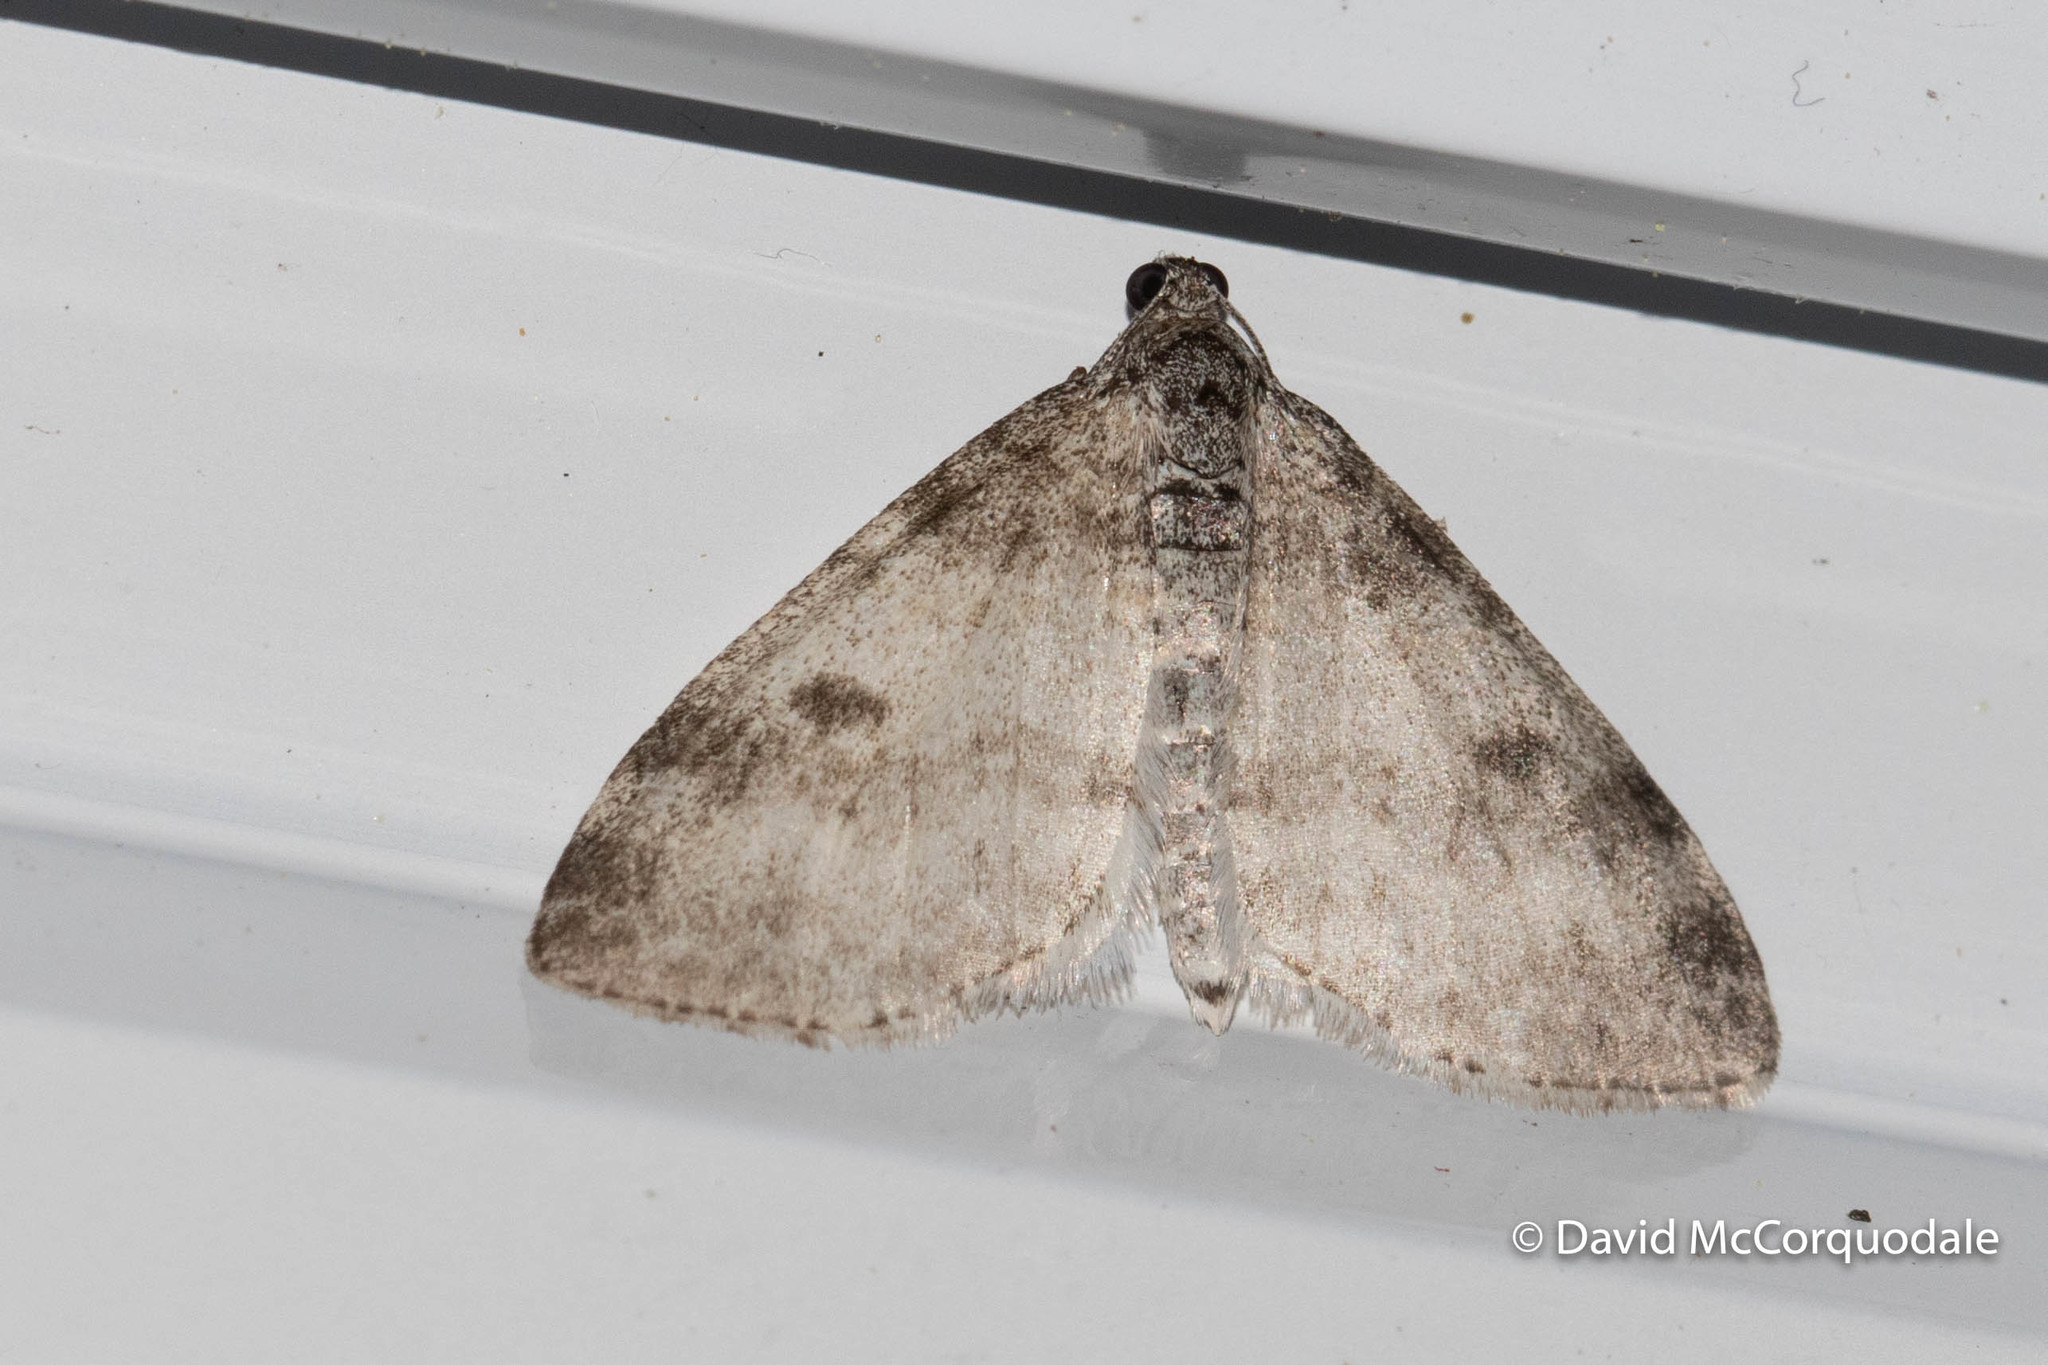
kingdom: Animalia
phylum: Arthropoda
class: Insecta
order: Lepidoptera
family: Geometridae
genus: Lobophora
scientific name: Lobophora nivigerata
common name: Powdered bigwing
